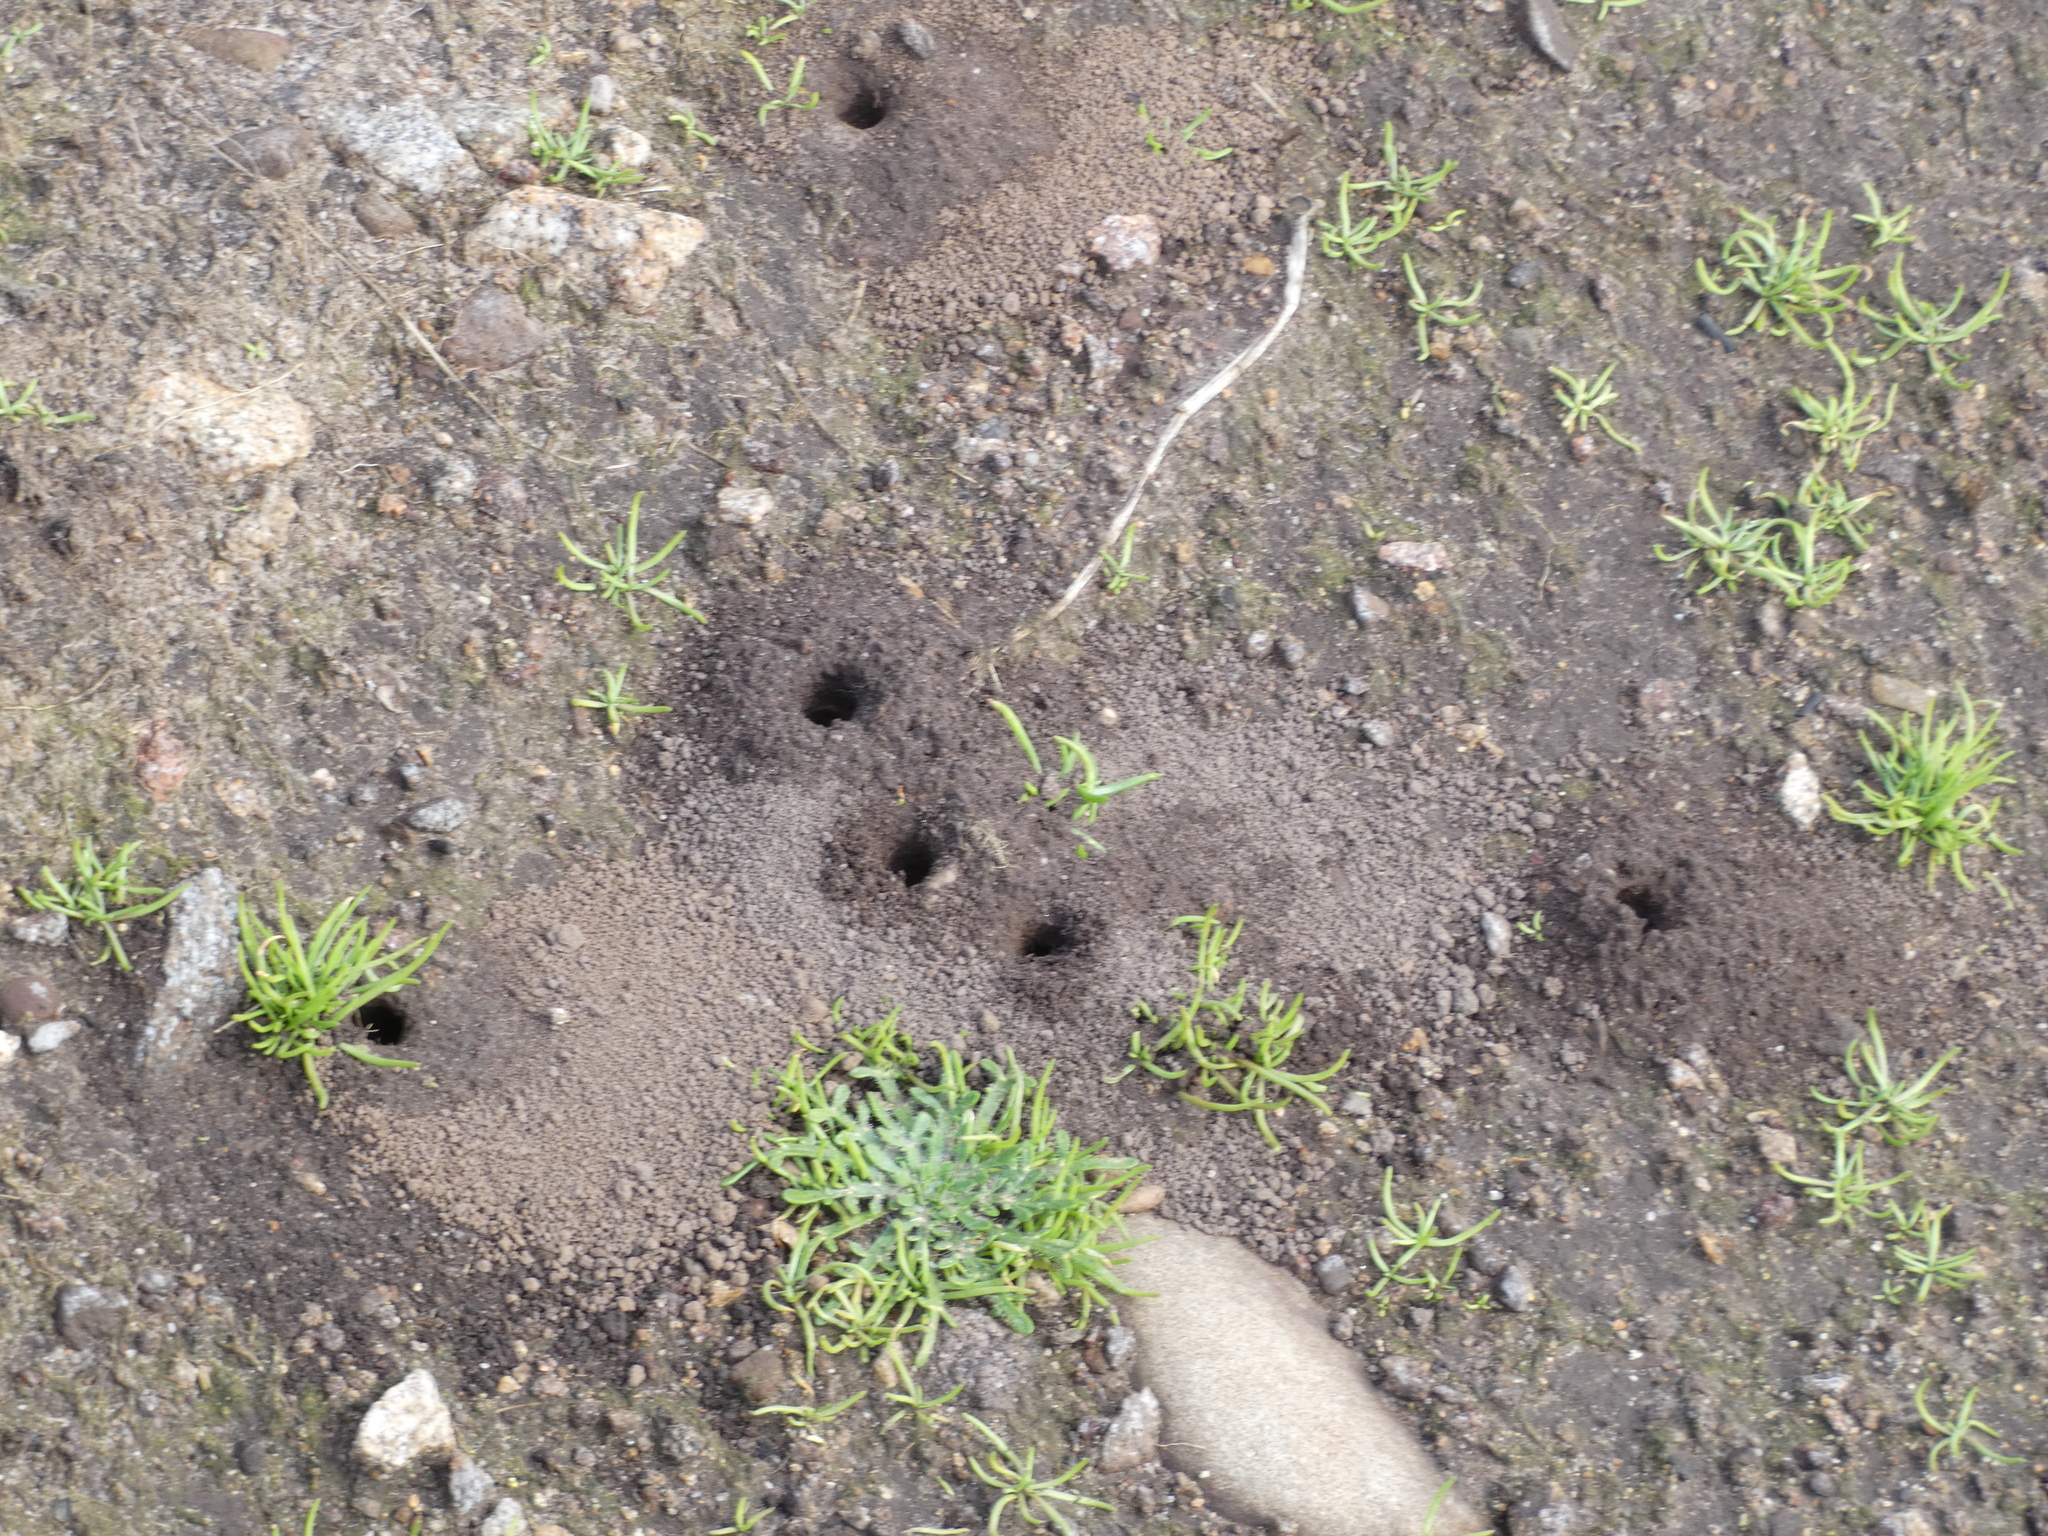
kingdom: Animalia
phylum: Arthropoda
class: Insecta
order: Hymenoptera
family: Colletidae
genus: Colletes
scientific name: Colletes cunicularius
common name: Early colletes
